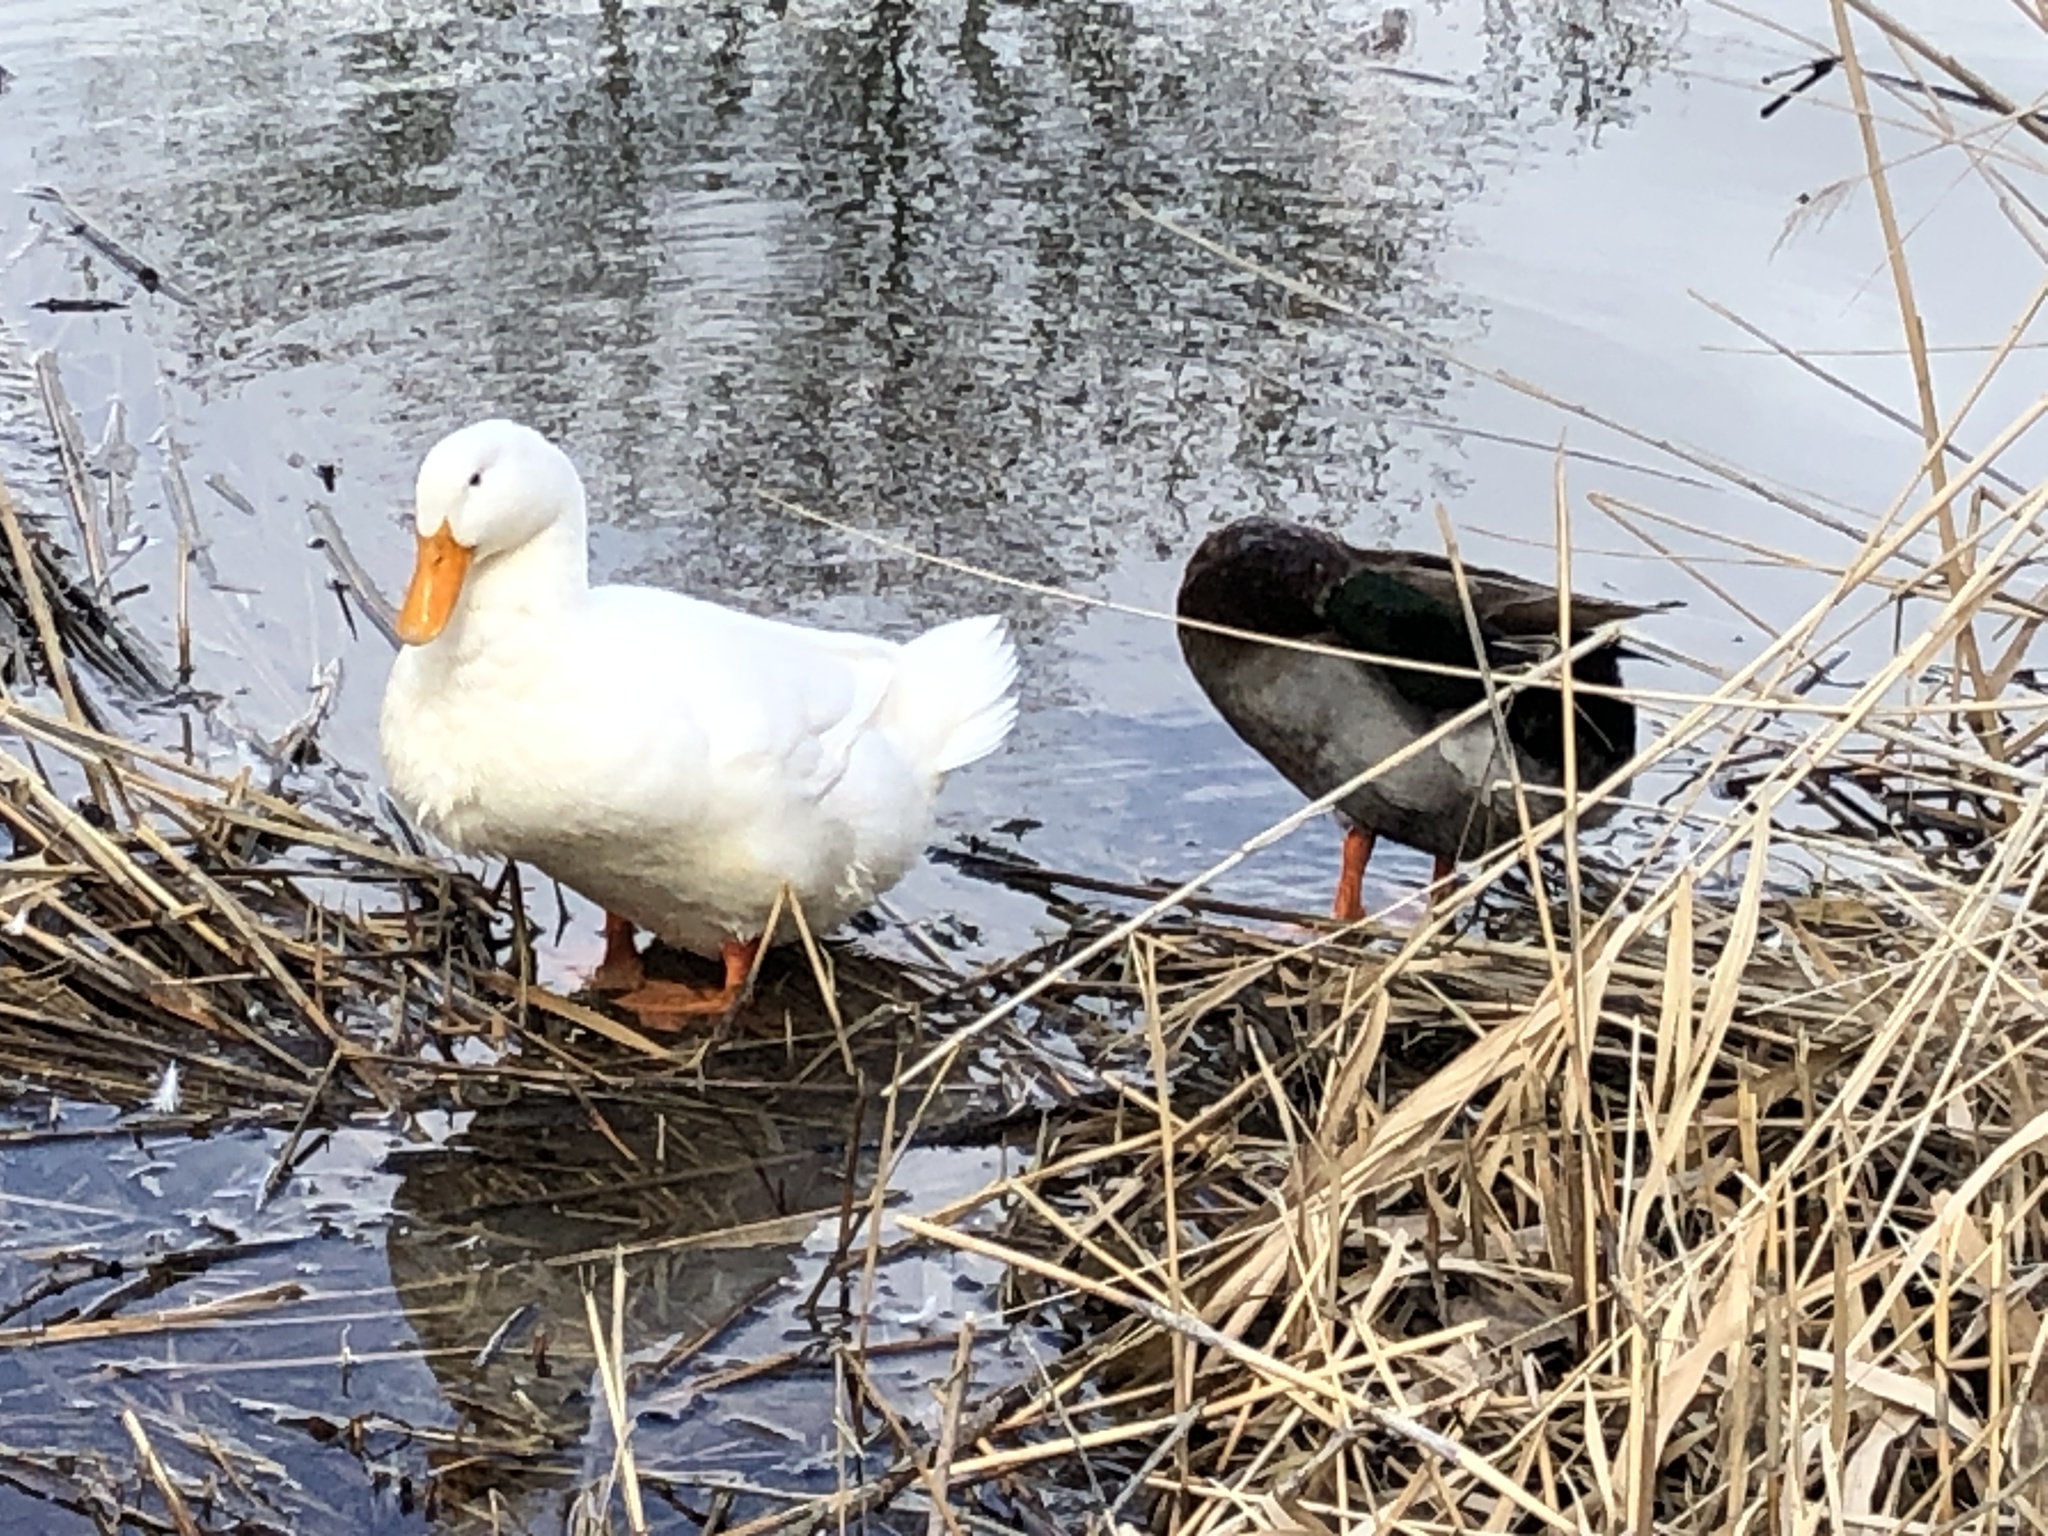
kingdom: Animalia
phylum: Chordata
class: Aves
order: Anseriformes
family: Anatidae
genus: Anas
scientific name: Anas platyrhynchos
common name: Mallard
